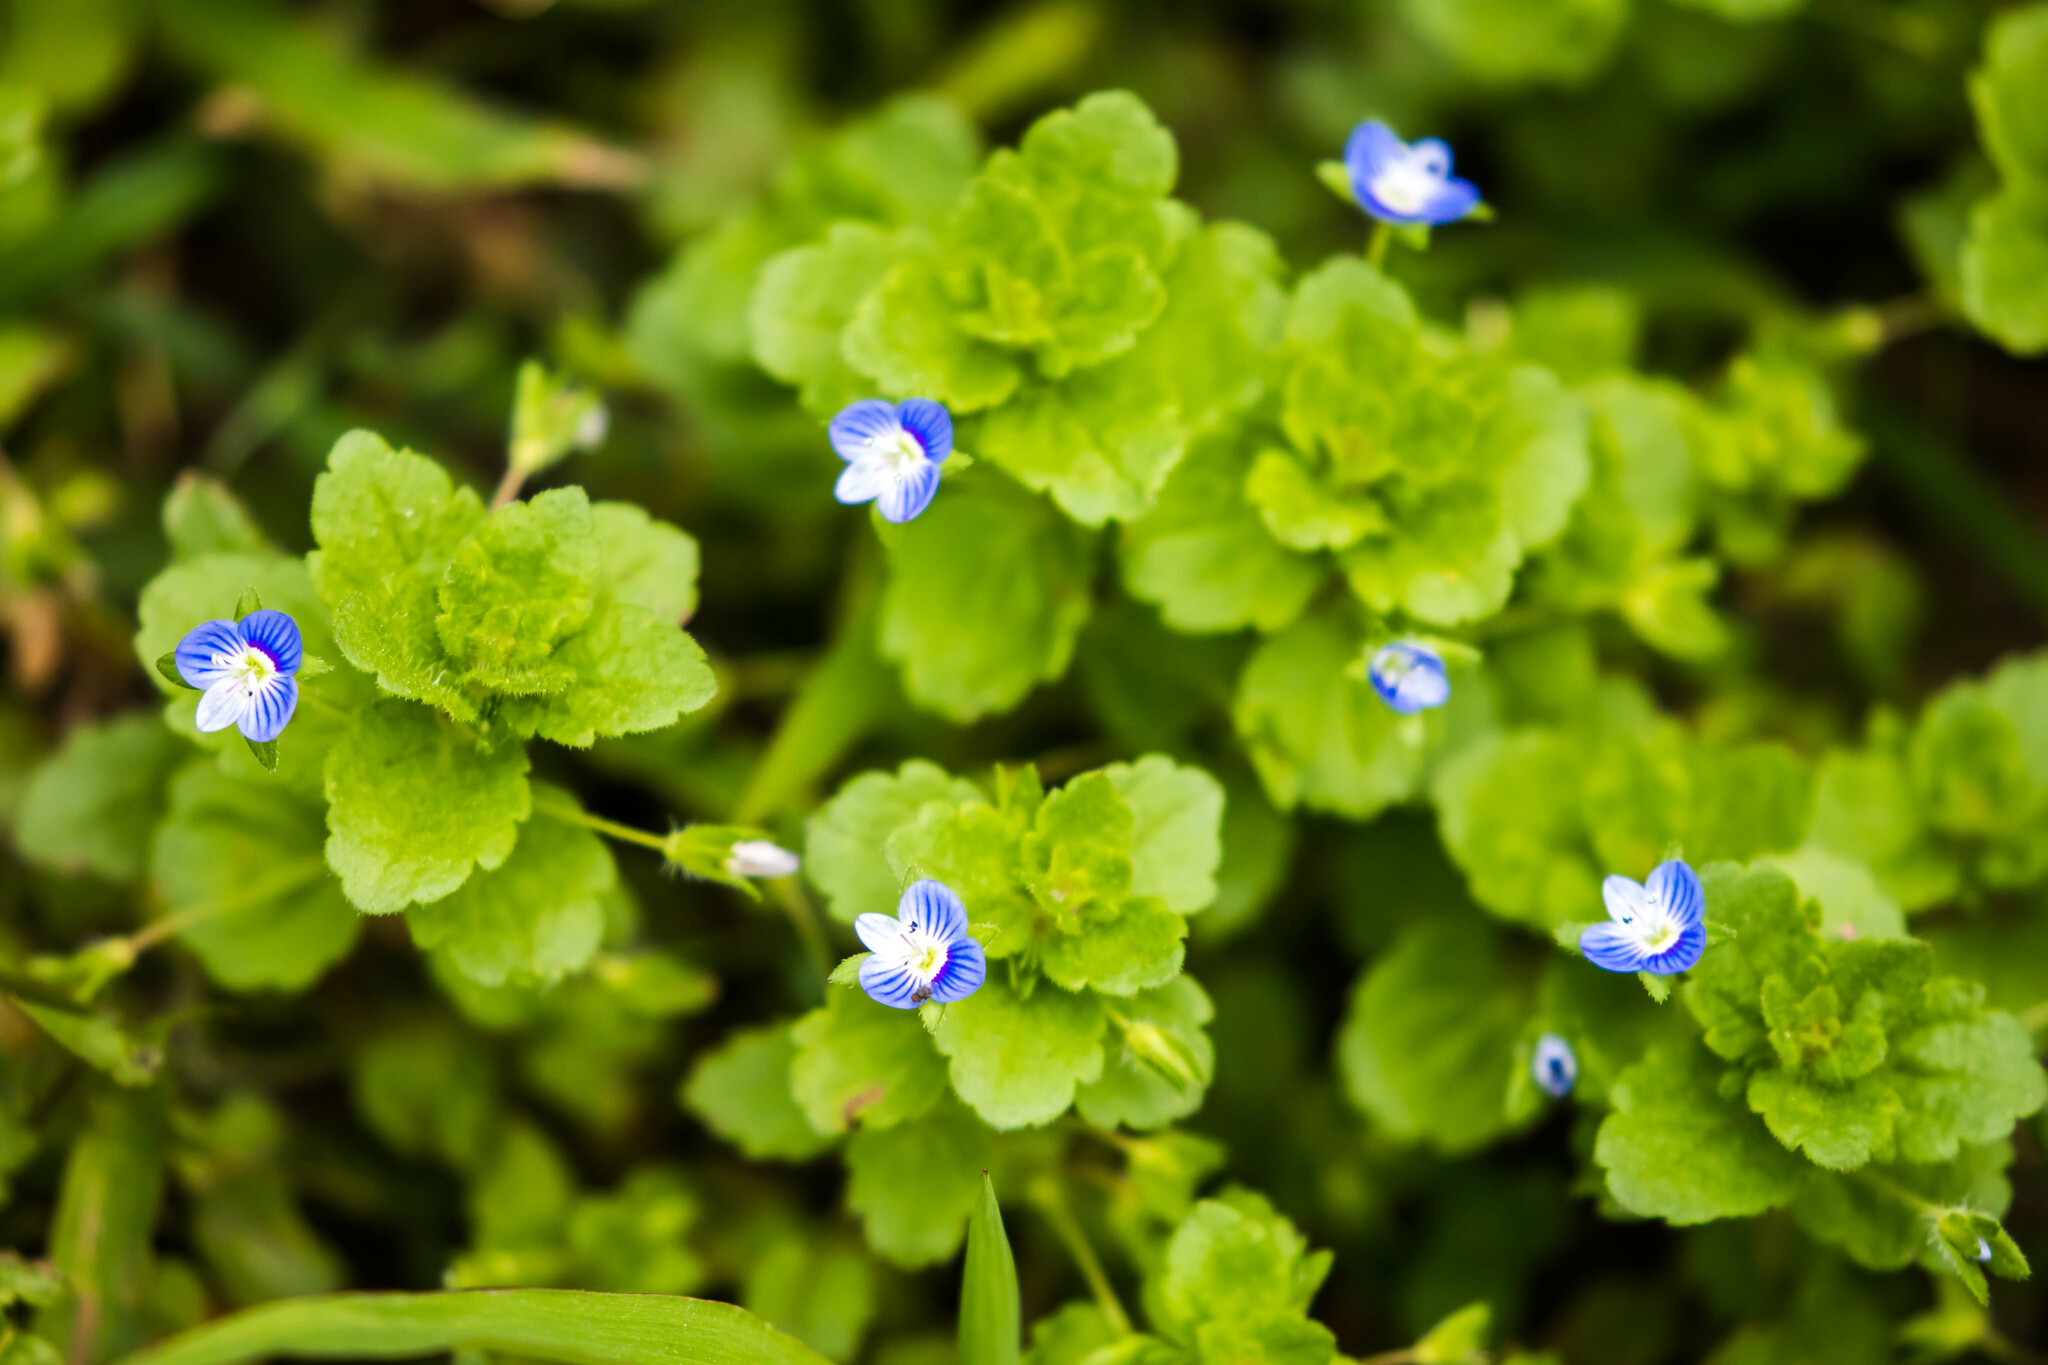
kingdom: Plantae
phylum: Tracheophyta
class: Magnoliopsida
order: Lamiales
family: Plantaginaceae
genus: Veronica
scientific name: Veronica persica
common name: Common field-speedwell
